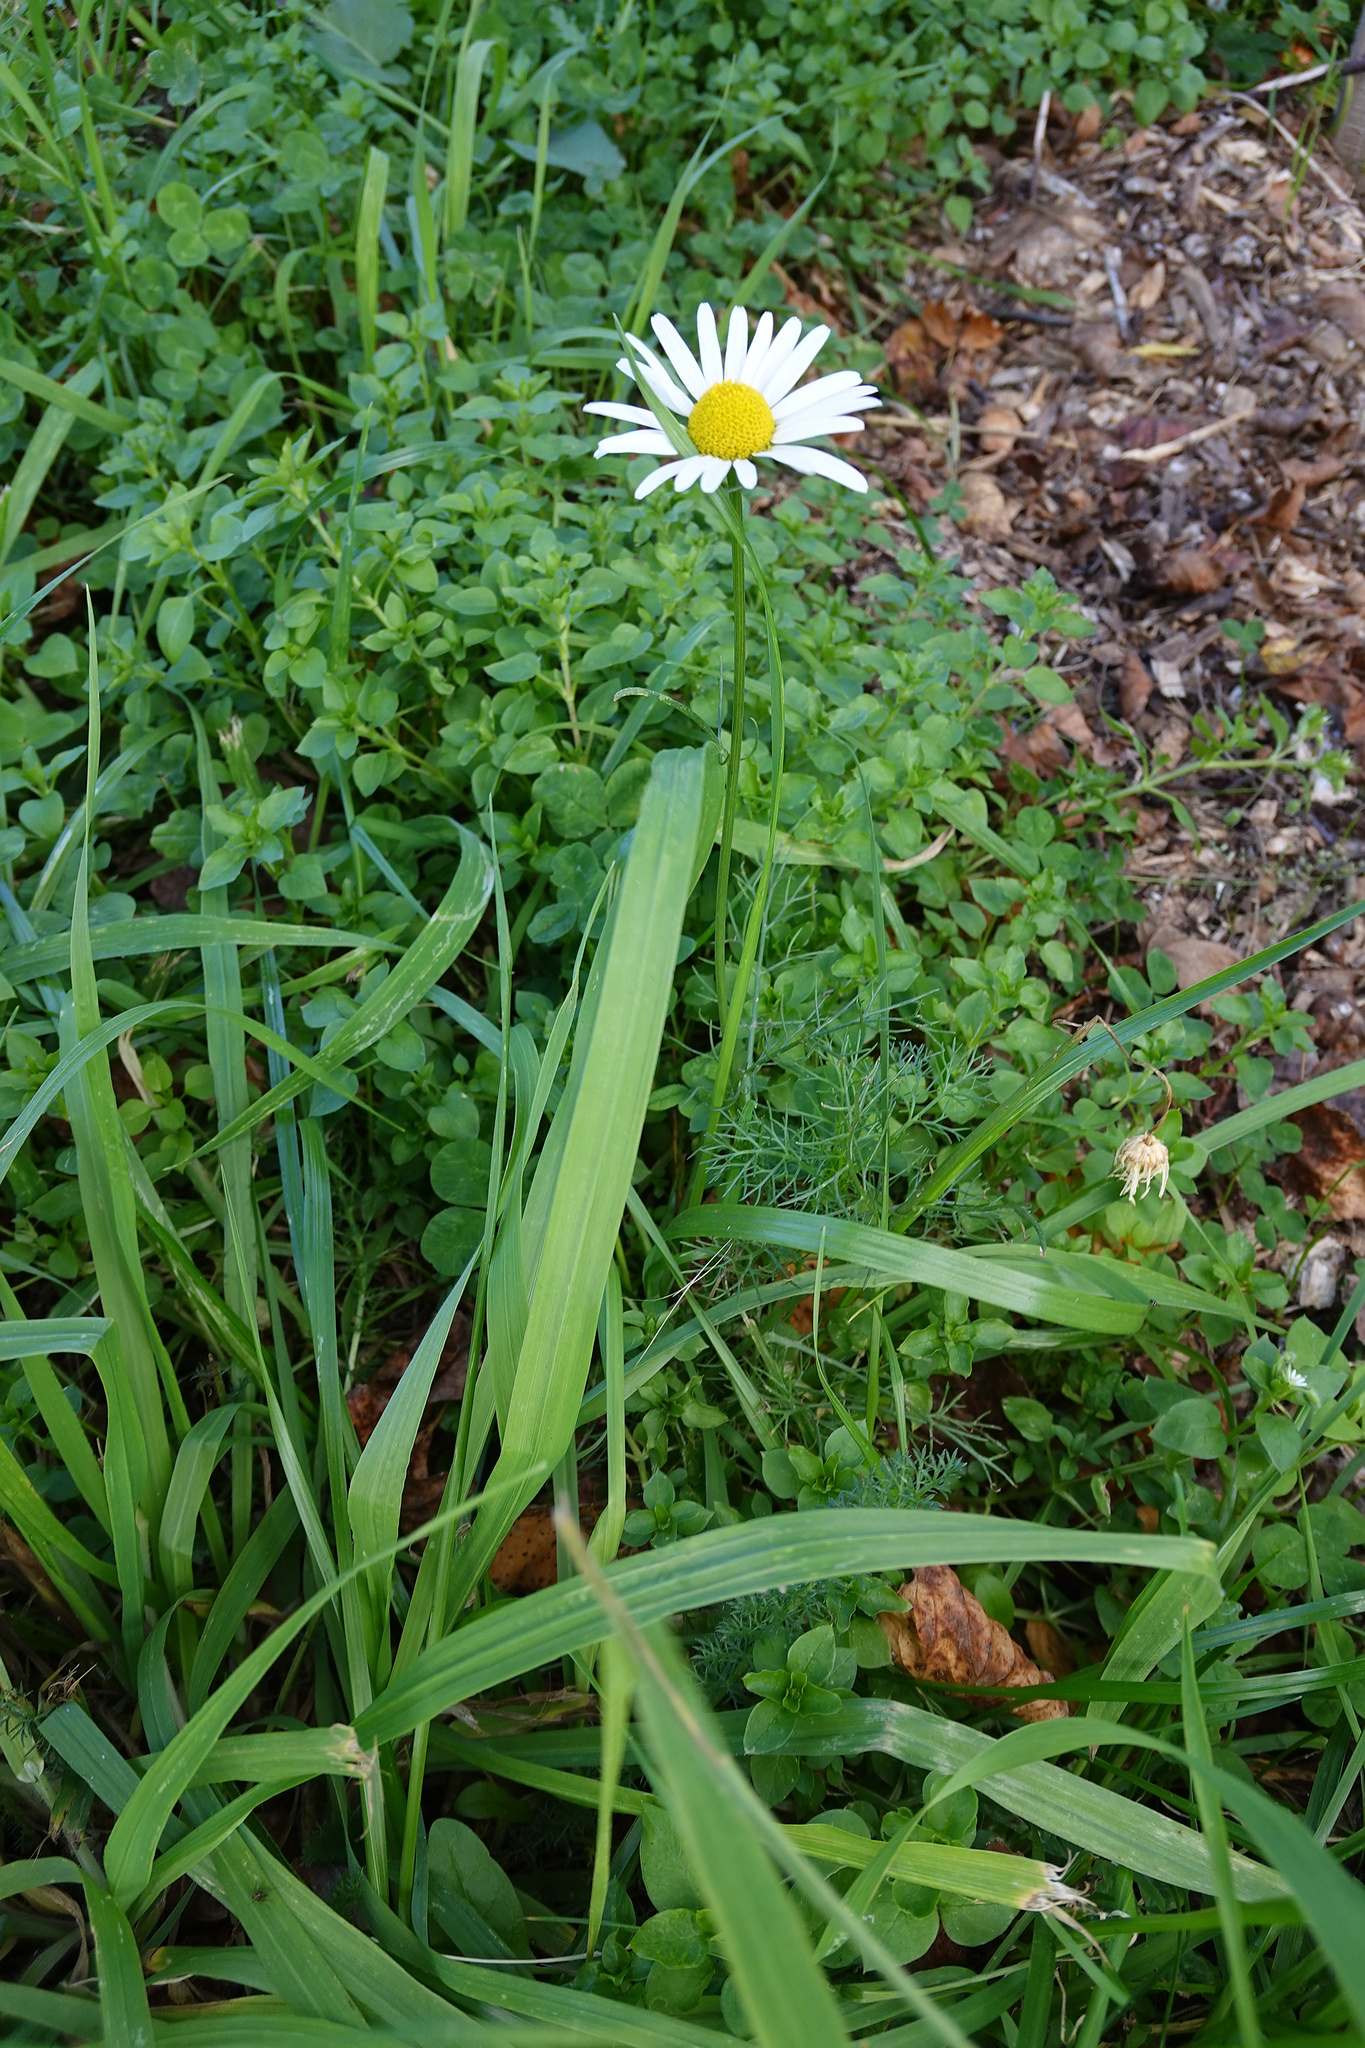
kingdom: Plantae
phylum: Tracheophyta
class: Magnoliopsida
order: Asterales
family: Asteraceae
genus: Tripleurospermum
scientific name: Tripleurospermum inodorum
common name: Scentless mayweed
